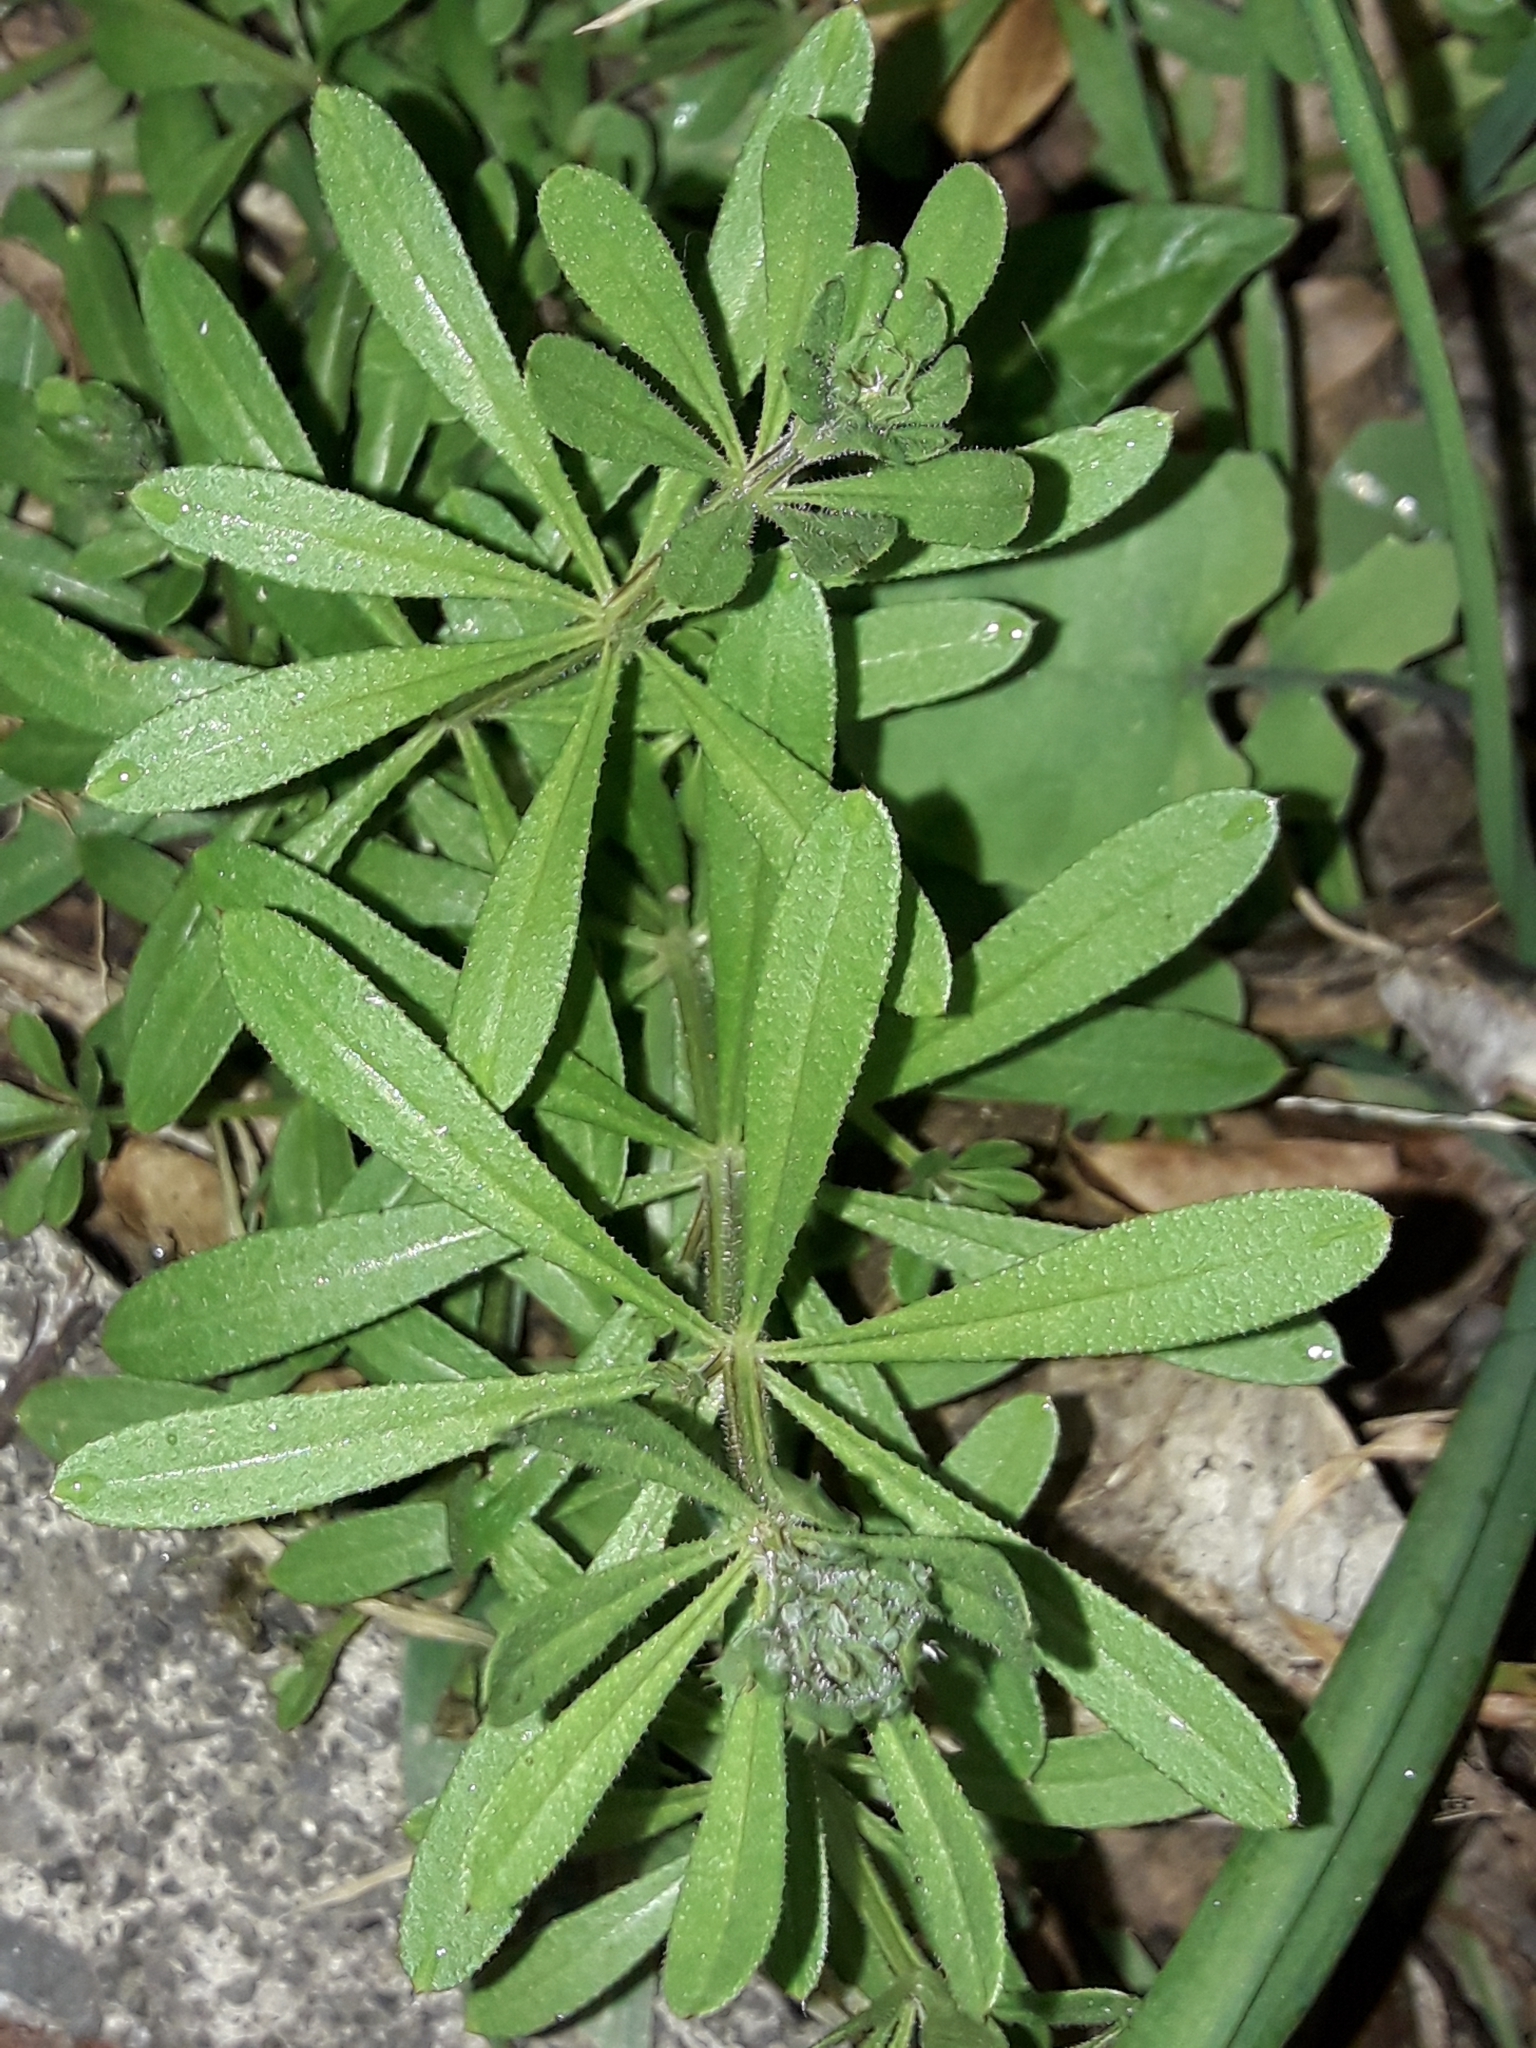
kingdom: Plantae
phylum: Tracheophyta
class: Magnoliopsida
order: Gentianales
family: Rubiaceae
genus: Galium
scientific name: Galium aparine
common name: Cleavers
